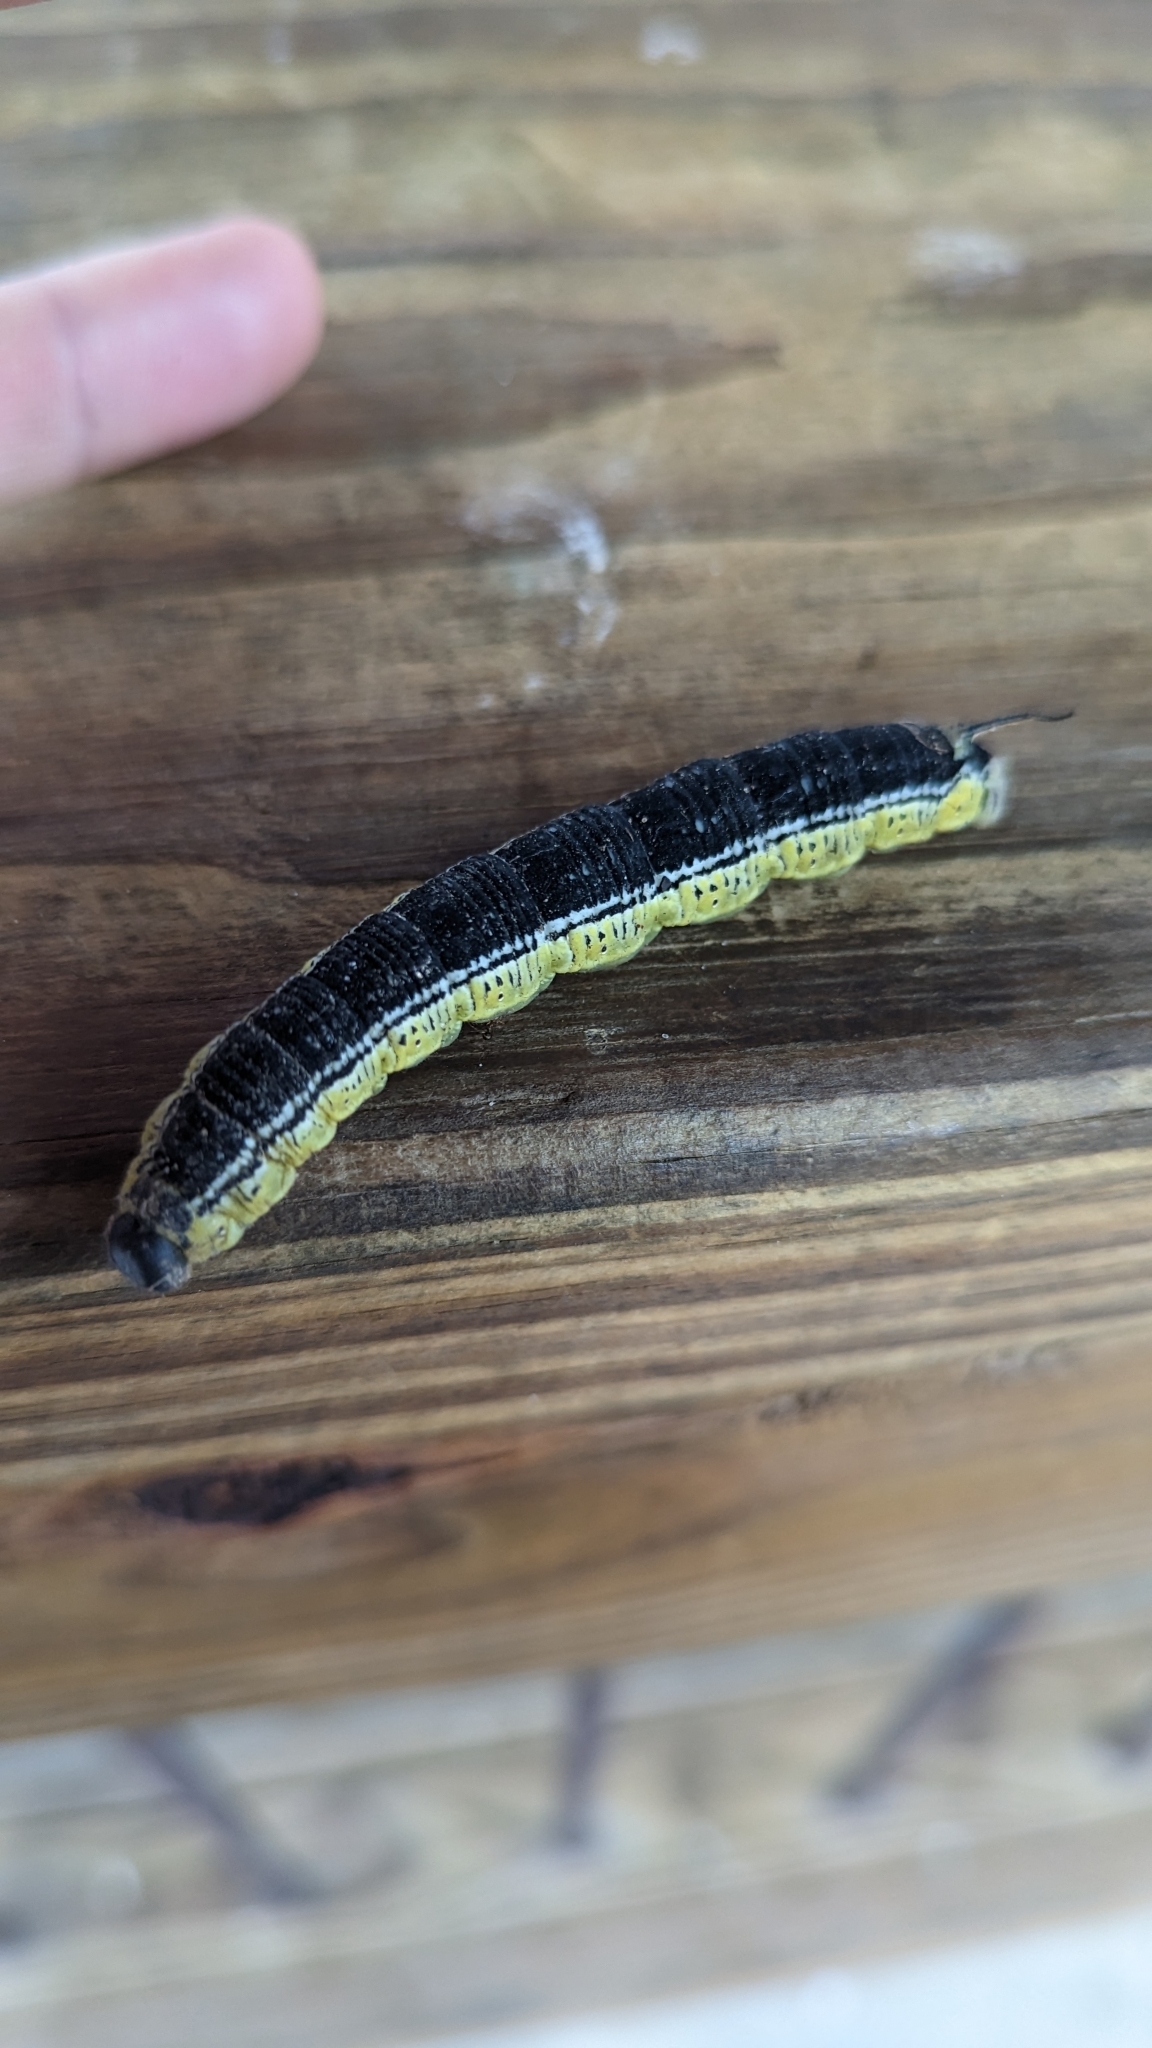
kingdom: Animalia
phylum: Arthropoda
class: Insecta
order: Lepidoptera
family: Sphingidae
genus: Ceratomia
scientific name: Ceratomia catalpae
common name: Catalpa hornworm
